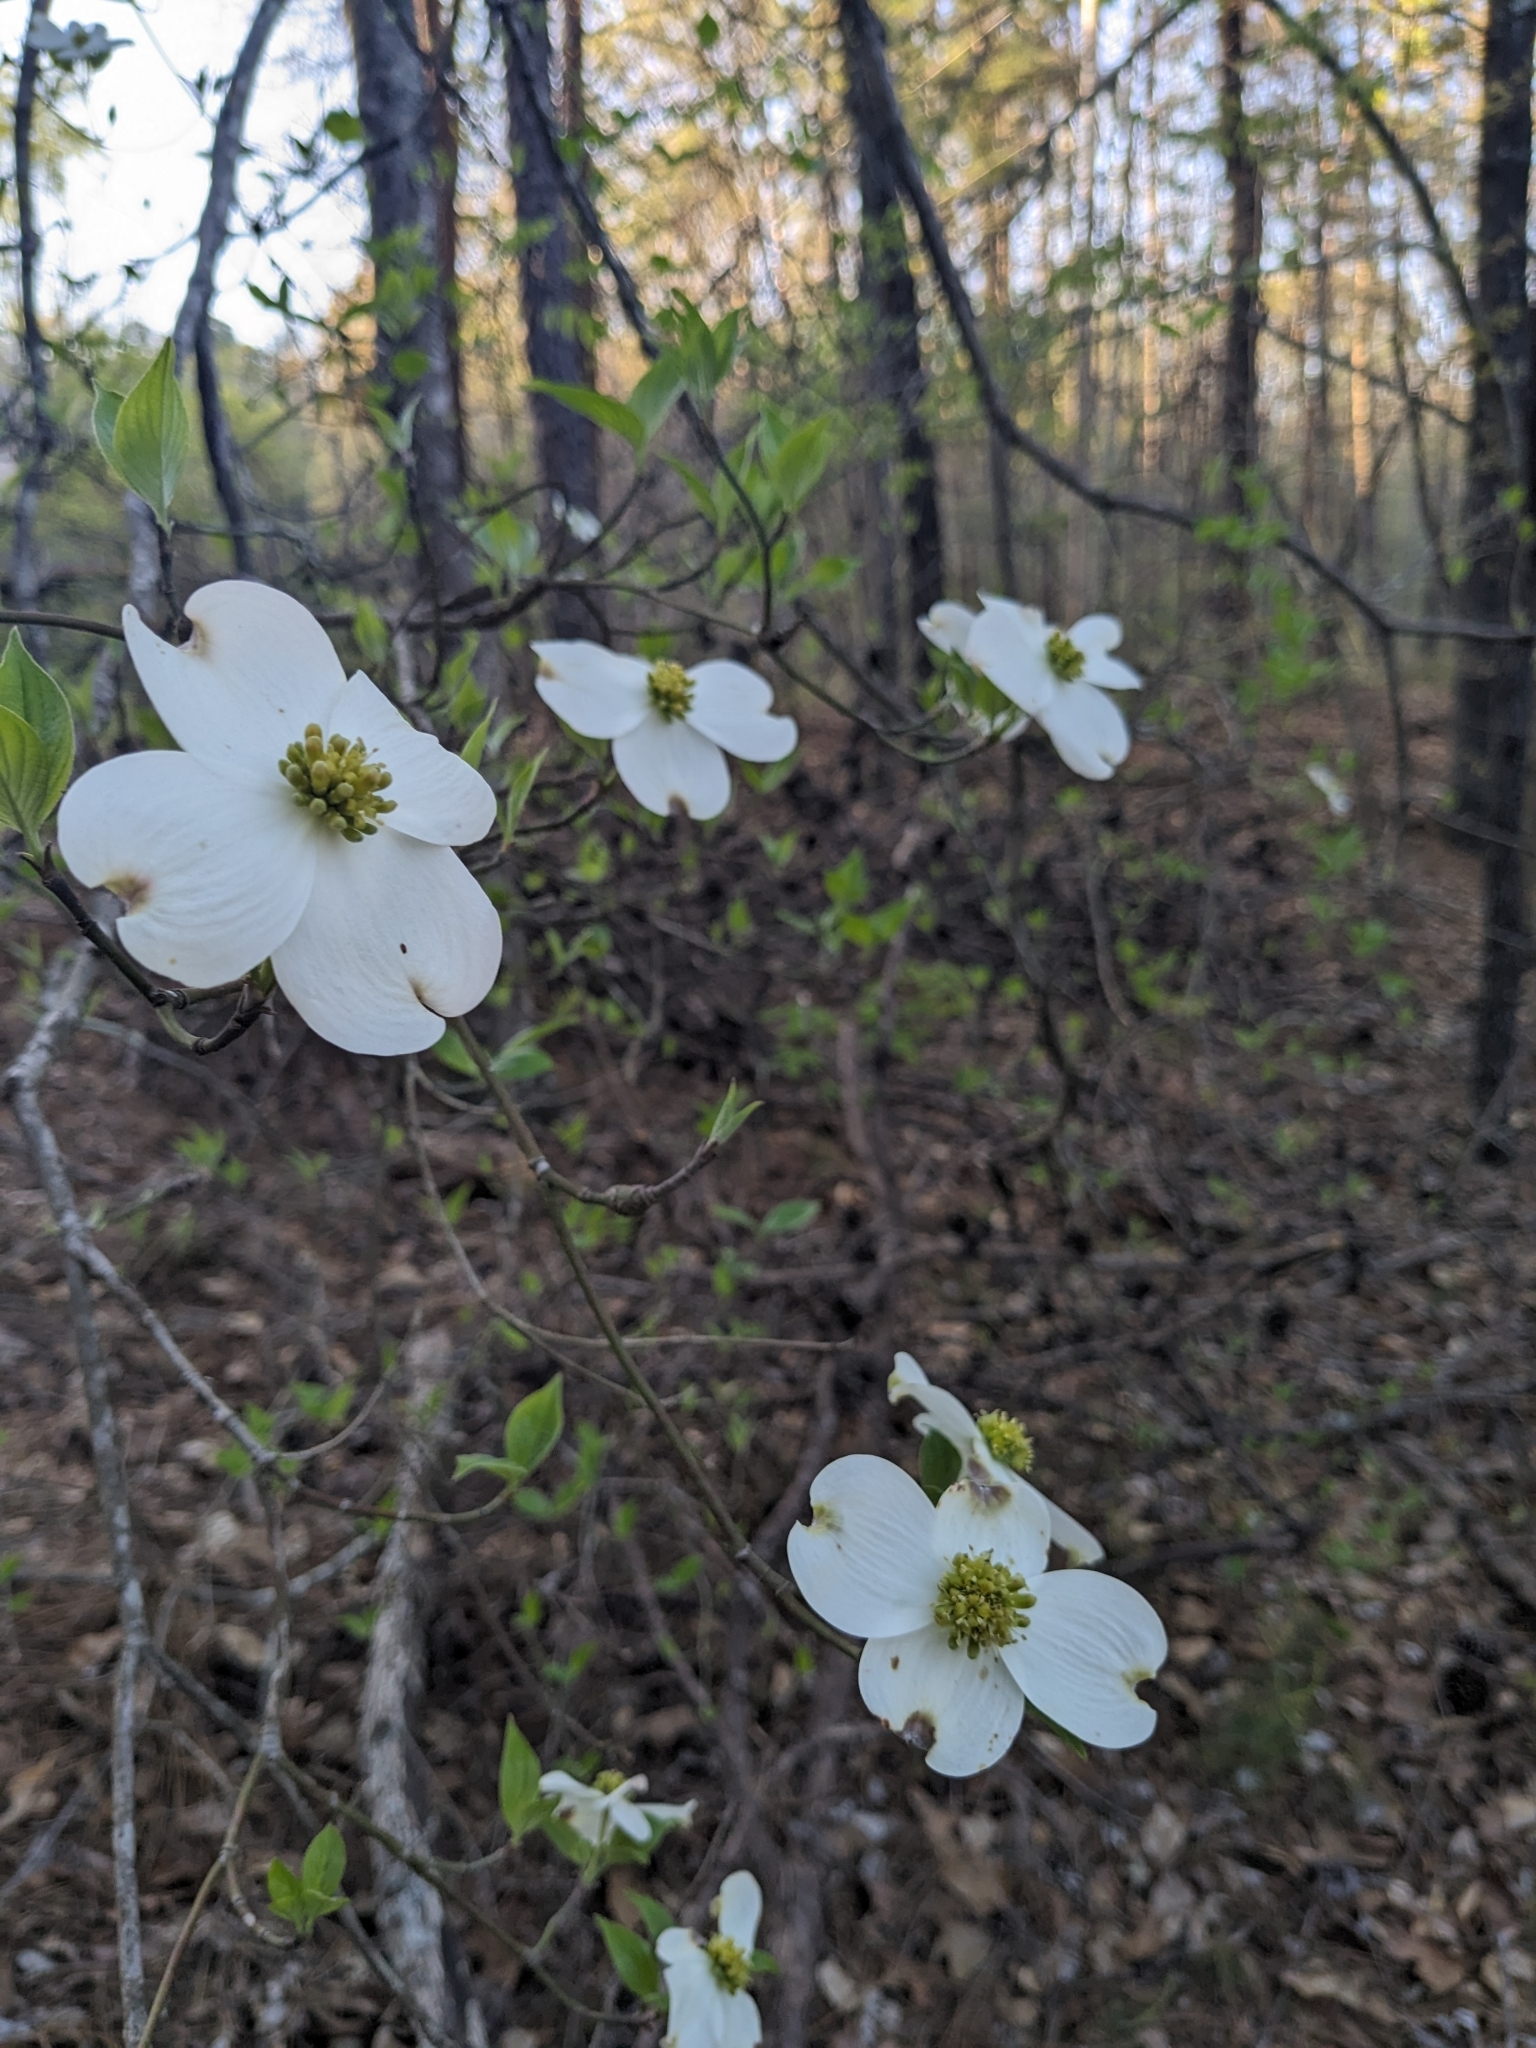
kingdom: Plantae
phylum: Tracheophyta
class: Magnoliopsida
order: Cornales
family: Cornaceae
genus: Cornus
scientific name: Cornus florida
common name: Flowering dogwood
